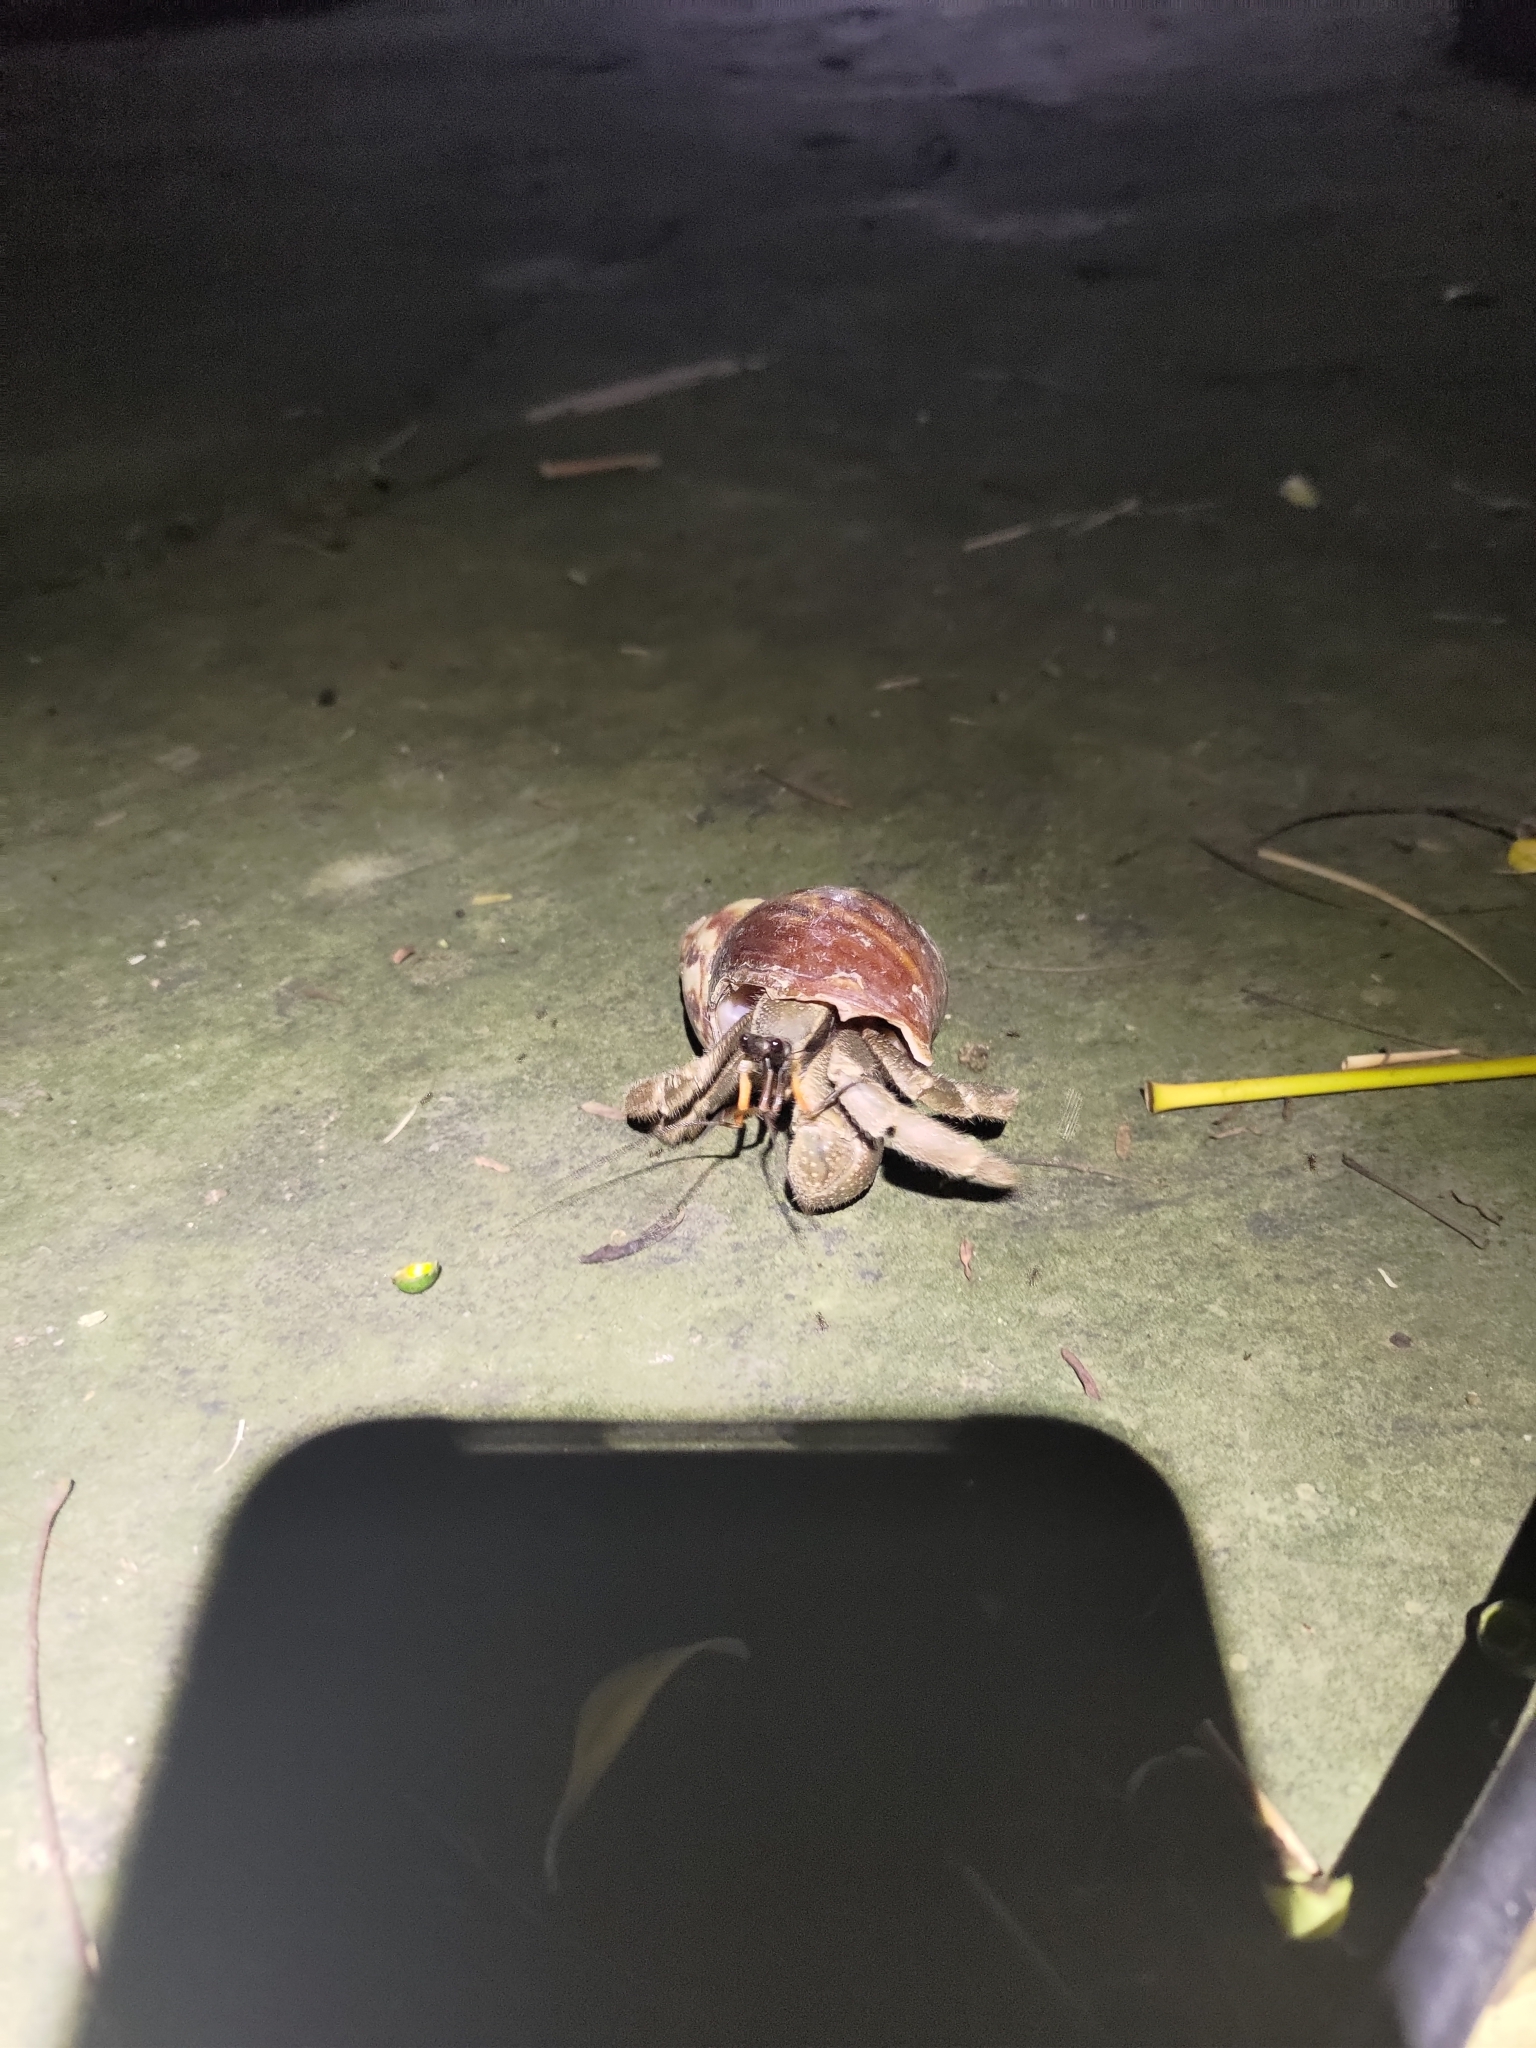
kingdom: Animalia
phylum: Arthropoda
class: Malacostraca
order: Decapoda
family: Coenobitidae
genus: Coenobita
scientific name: Coenobita cavipes
